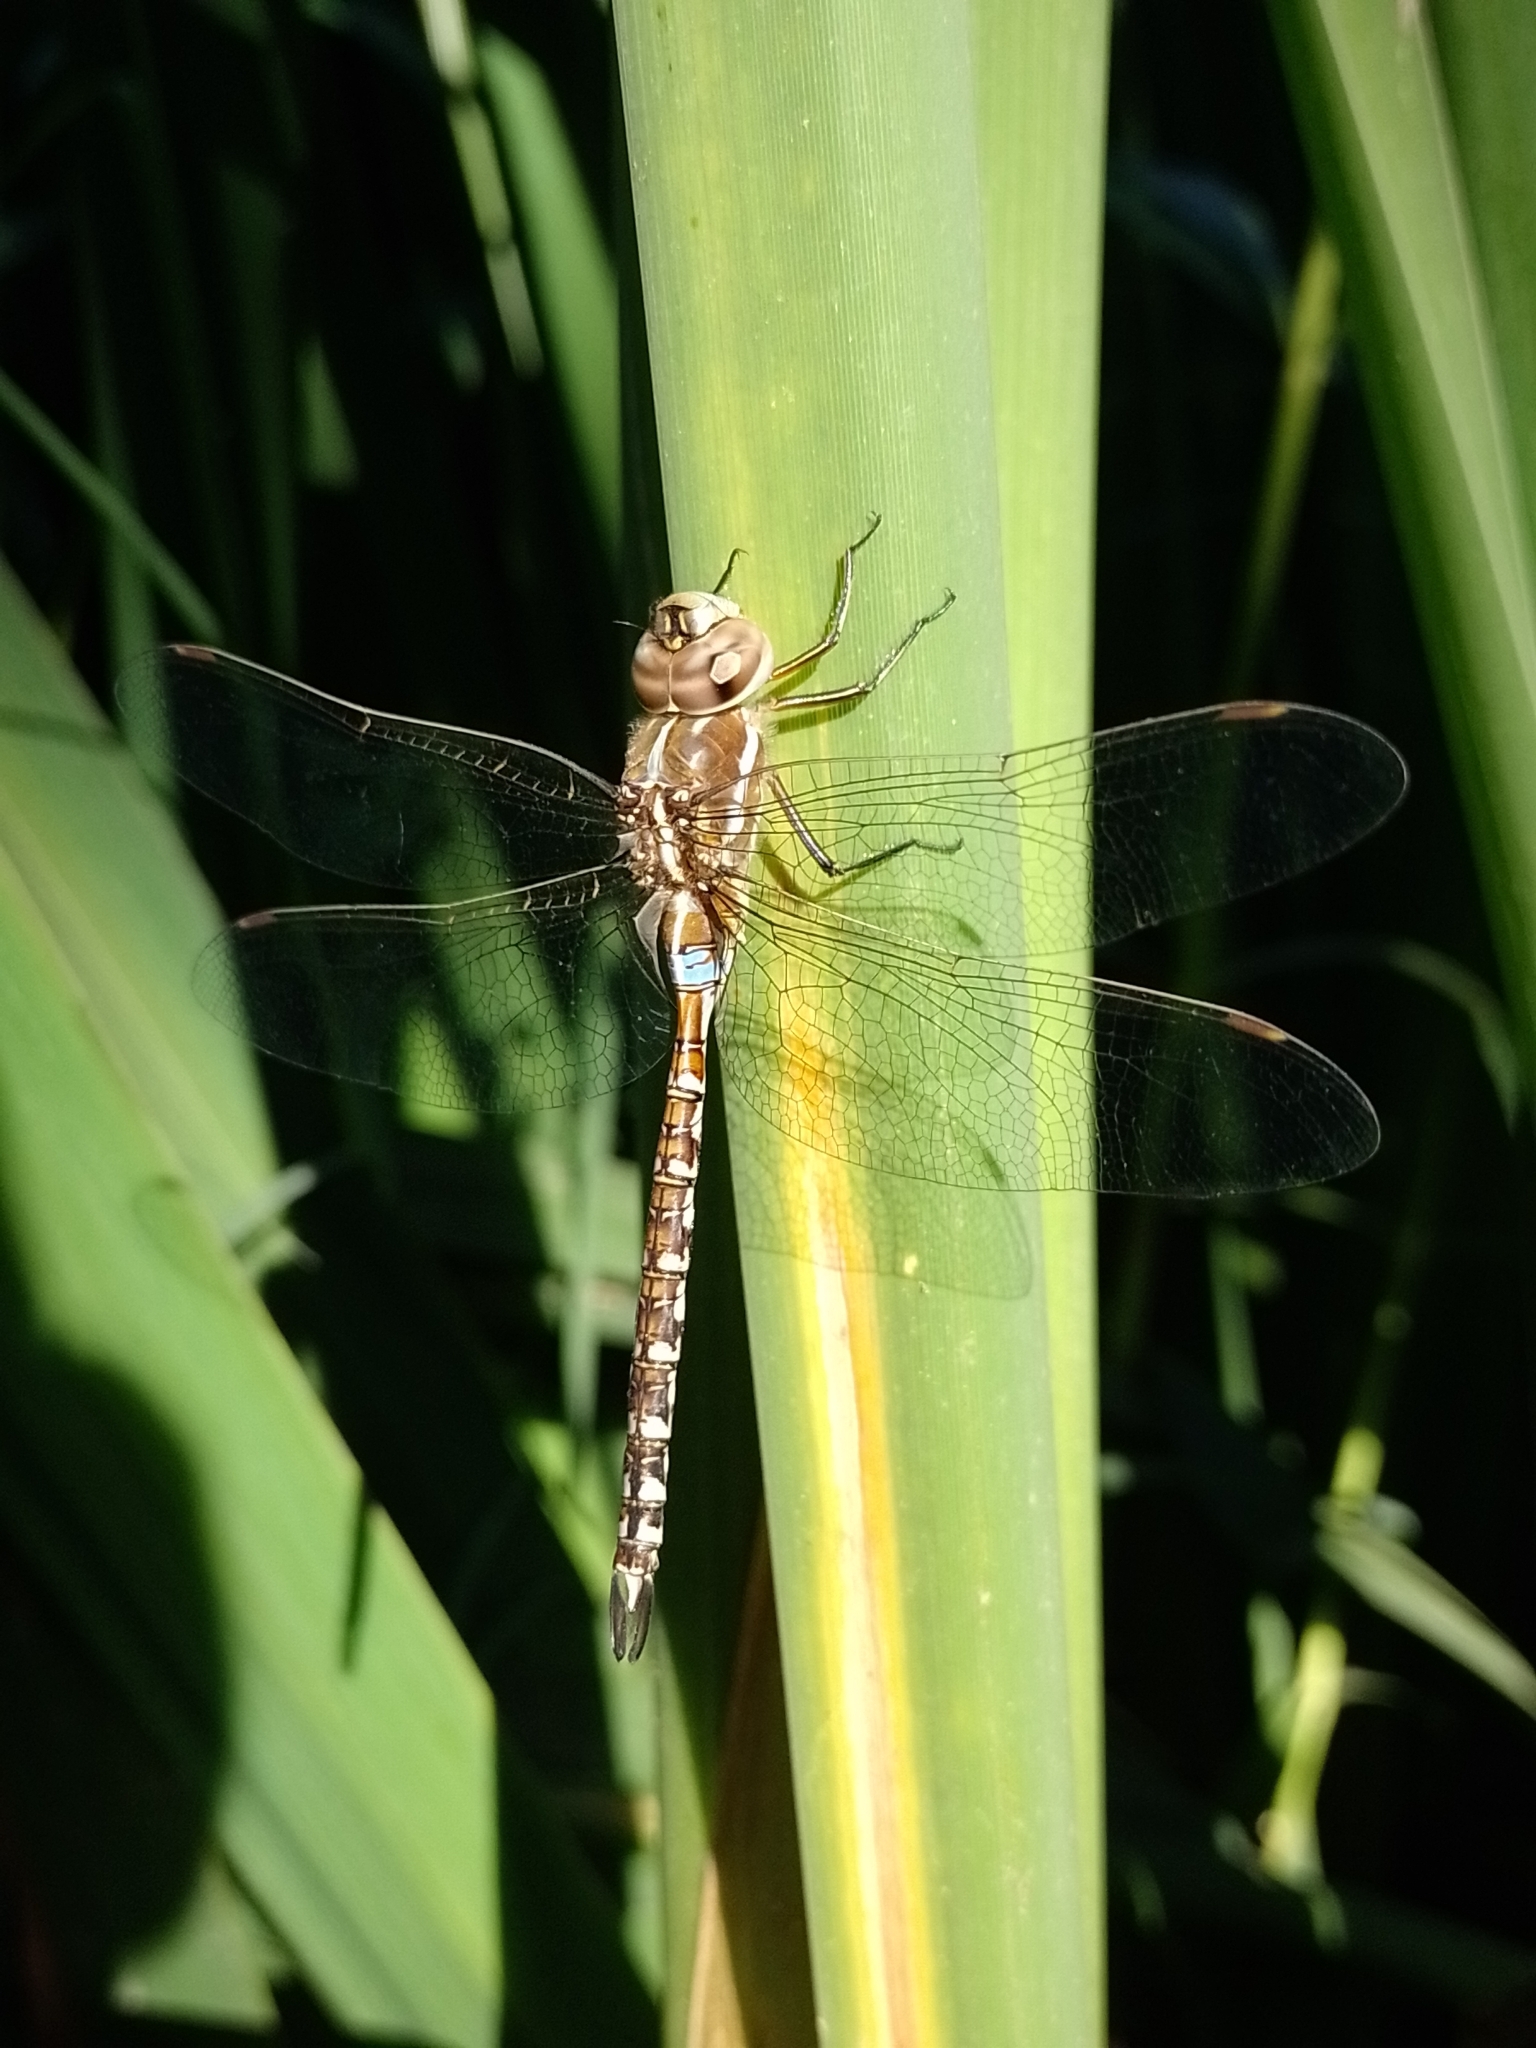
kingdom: Animalia
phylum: Arthropoda
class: Insecta
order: Odonata
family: Aeshnidae
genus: Rhionaeschna
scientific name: Rhionaeschna bonariensis
